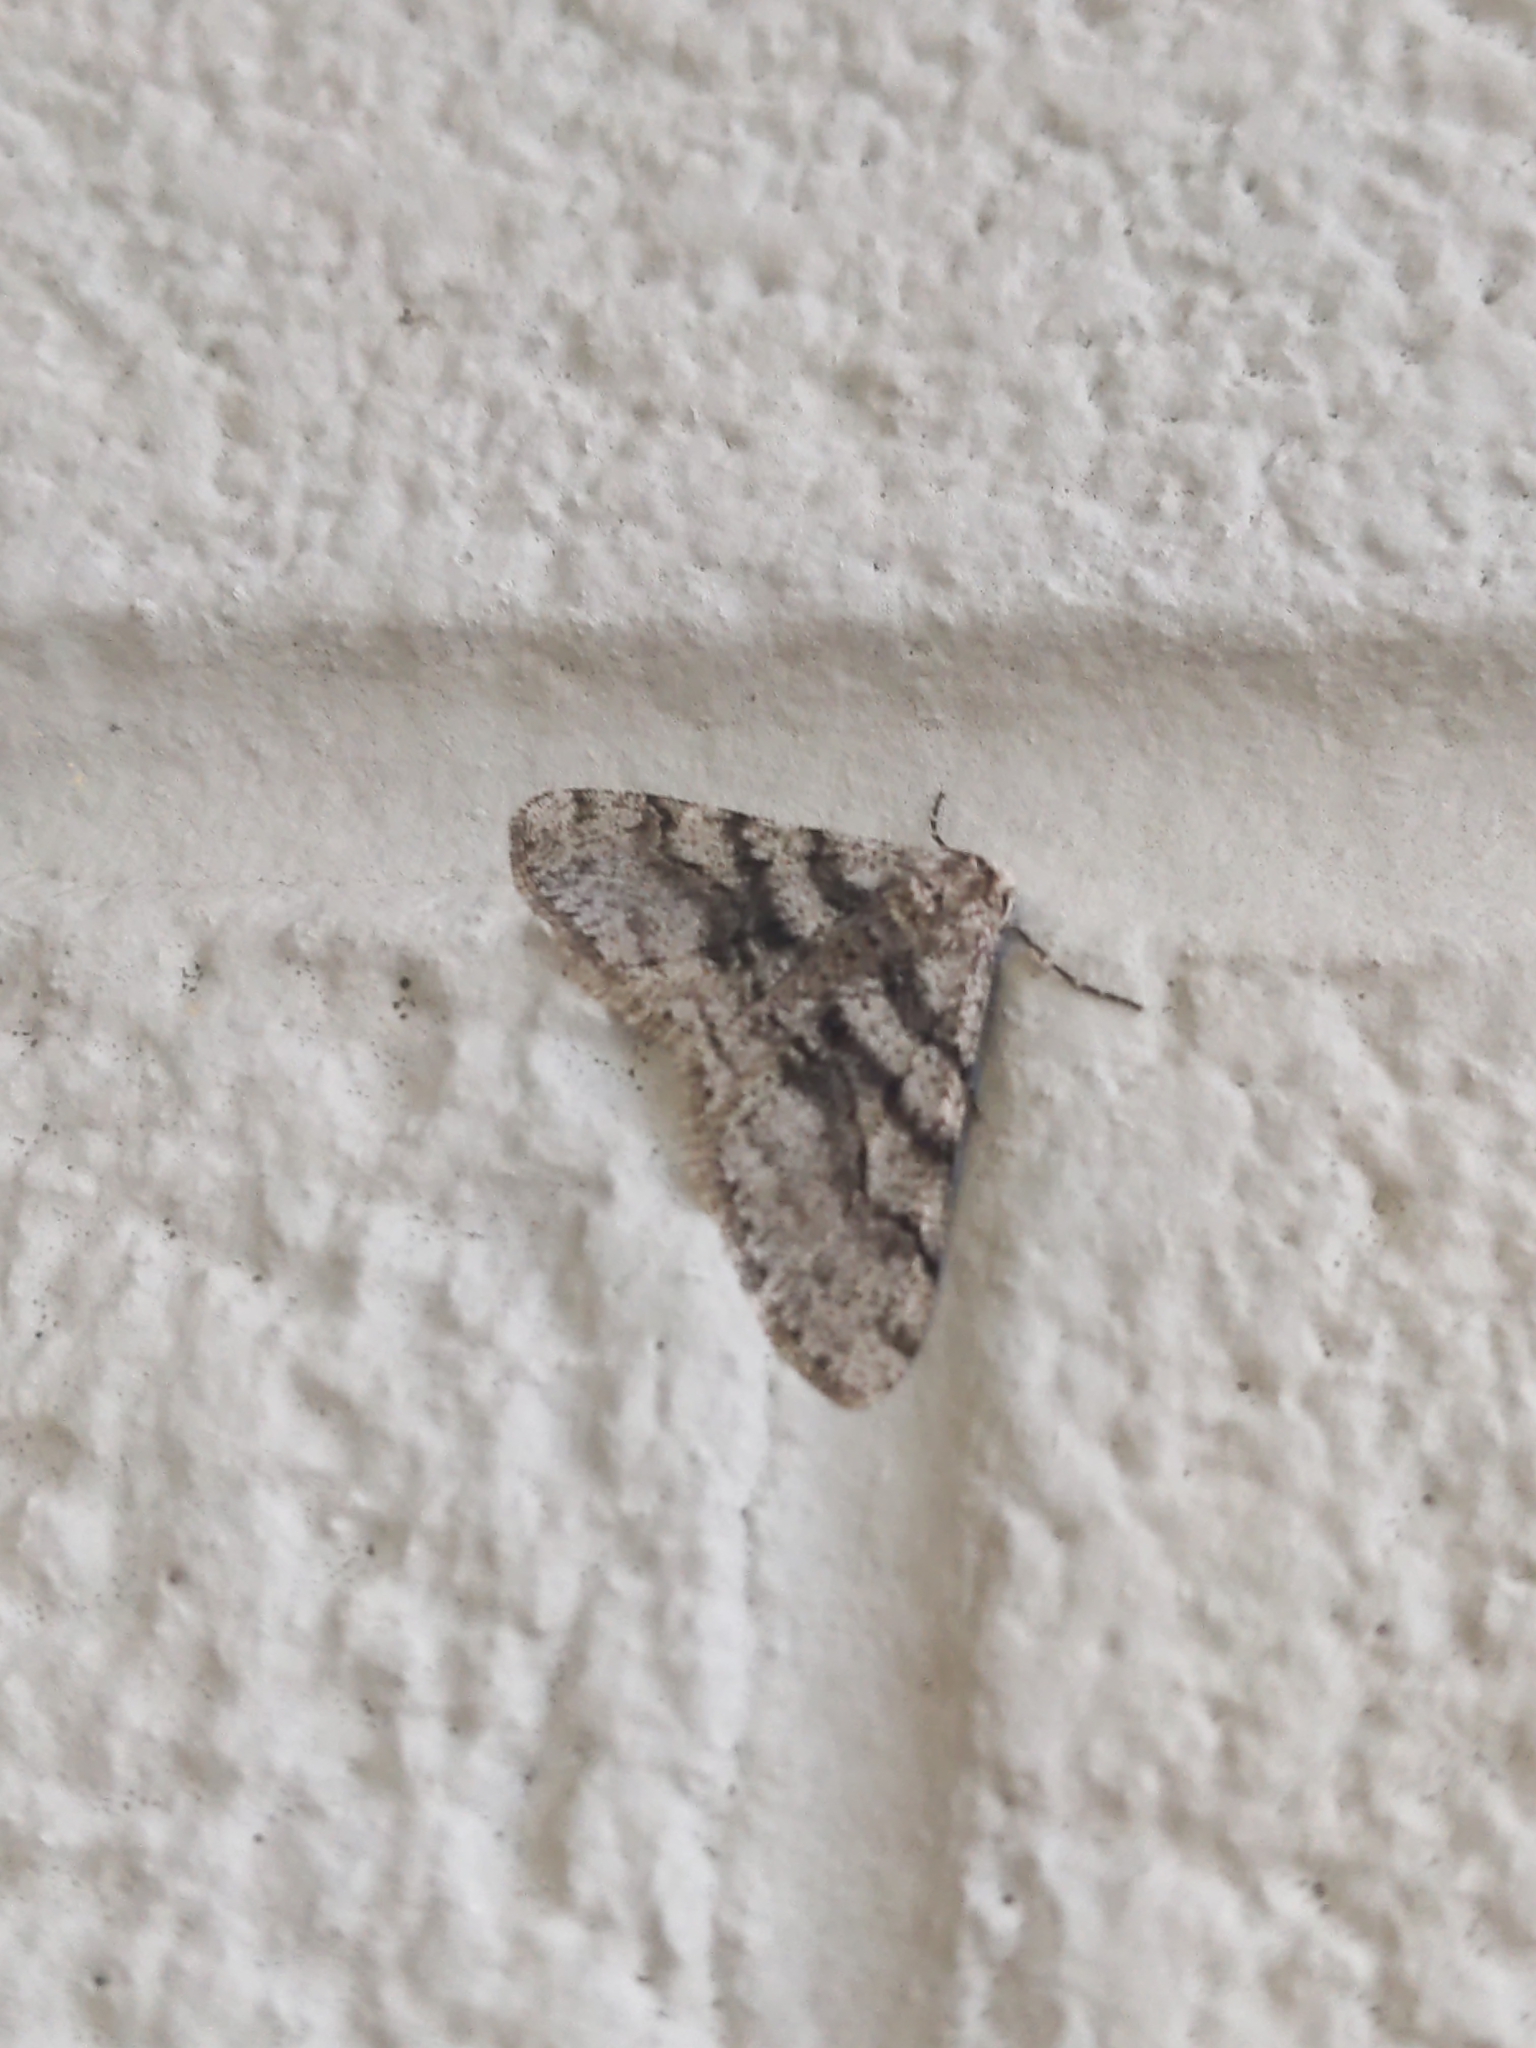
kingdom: Animalia
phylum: Arthropoda
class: Insecta
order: Lepidoptera
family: Geometridae
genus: Phigalia
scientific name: Phigalia titea
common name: Spiny looper
